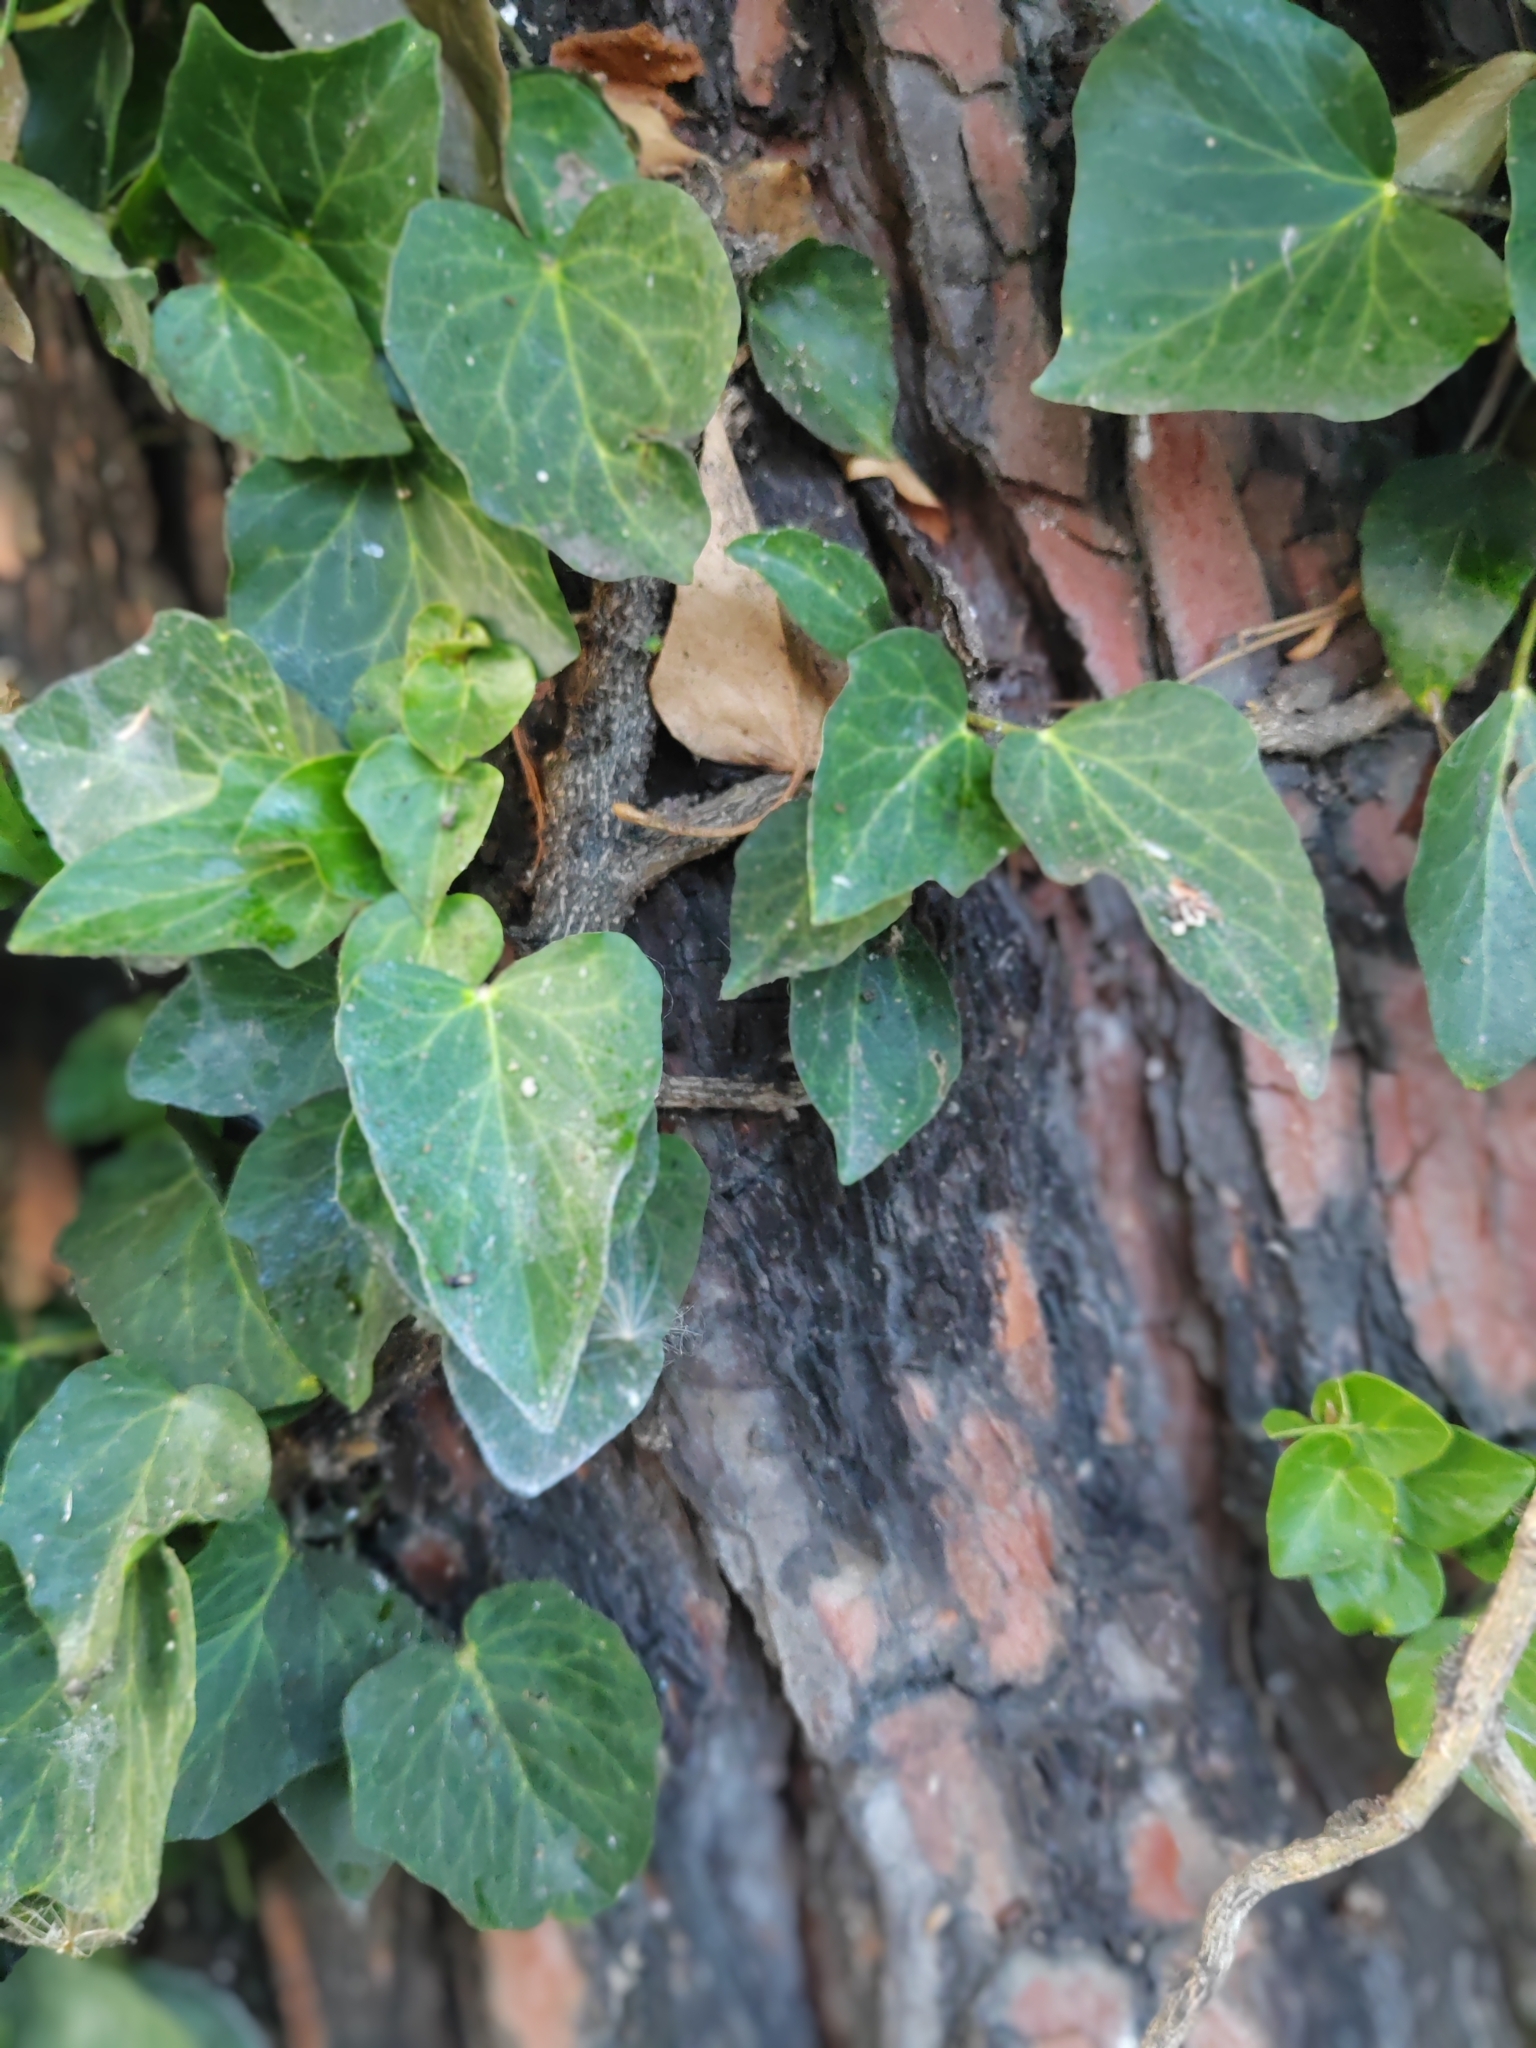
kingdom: Plantae
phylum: Tracheophyta
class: Magnoliopsida
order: Apiales
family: Araliaceae
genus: Hedera
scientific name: Hedera helix
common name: Ivy
